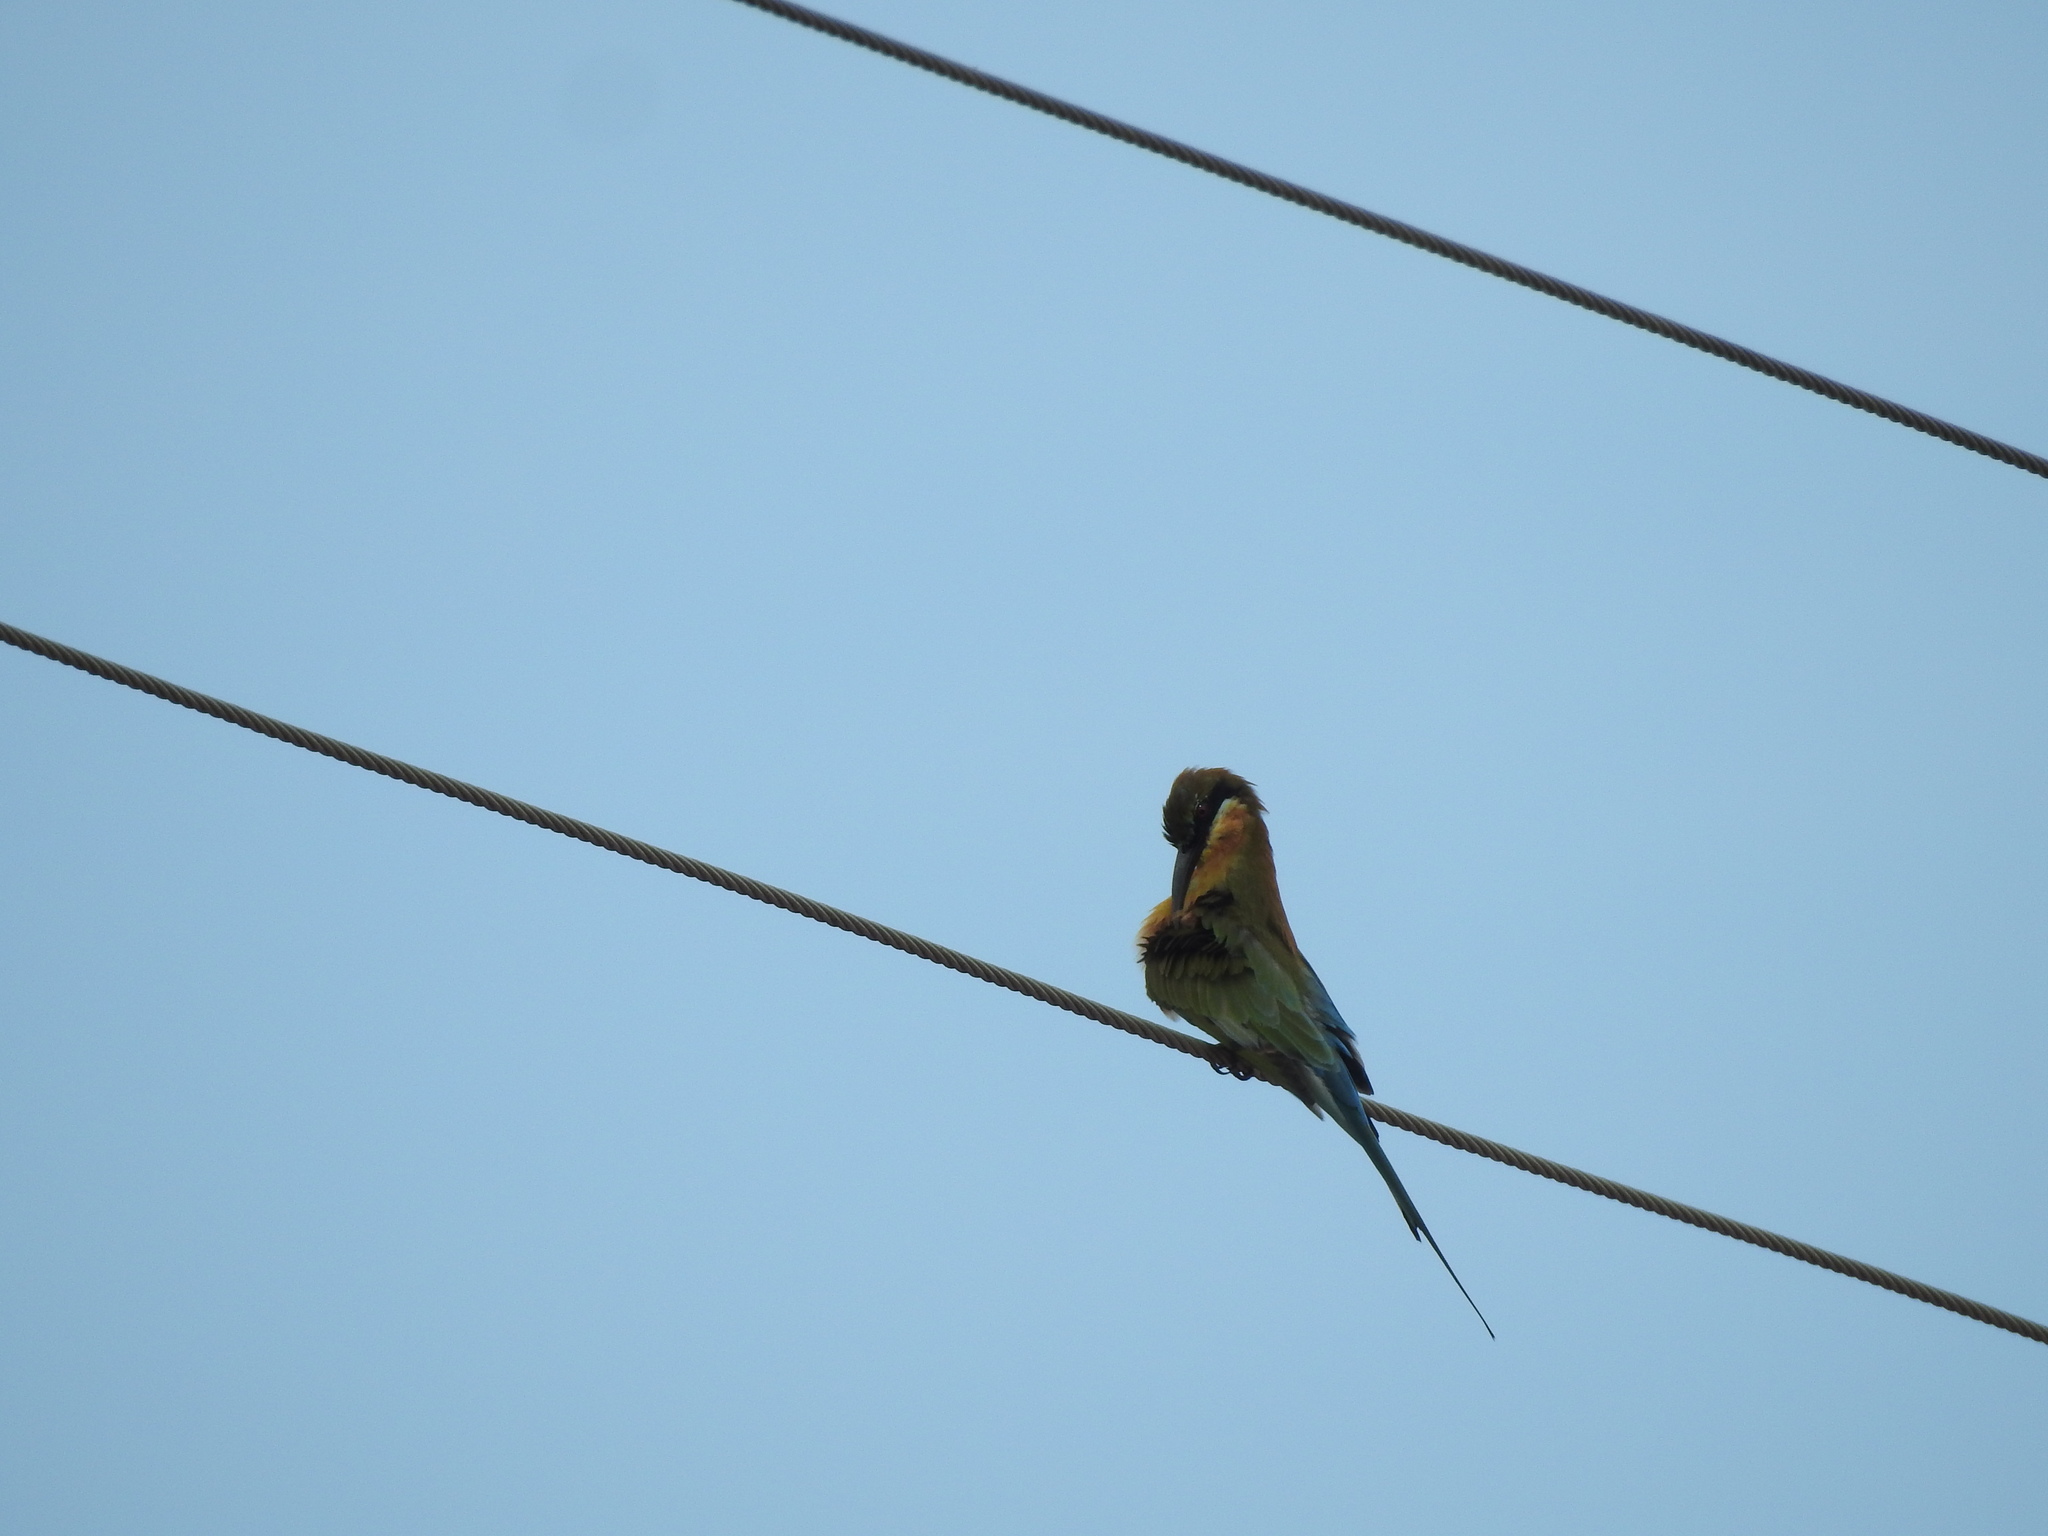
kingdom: Animalia
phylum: Chordata
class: Aves
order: Coraciiformes
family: Meropidae
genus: Merops
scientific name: Merops philippinus
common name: Blue-tailed bee-eater
